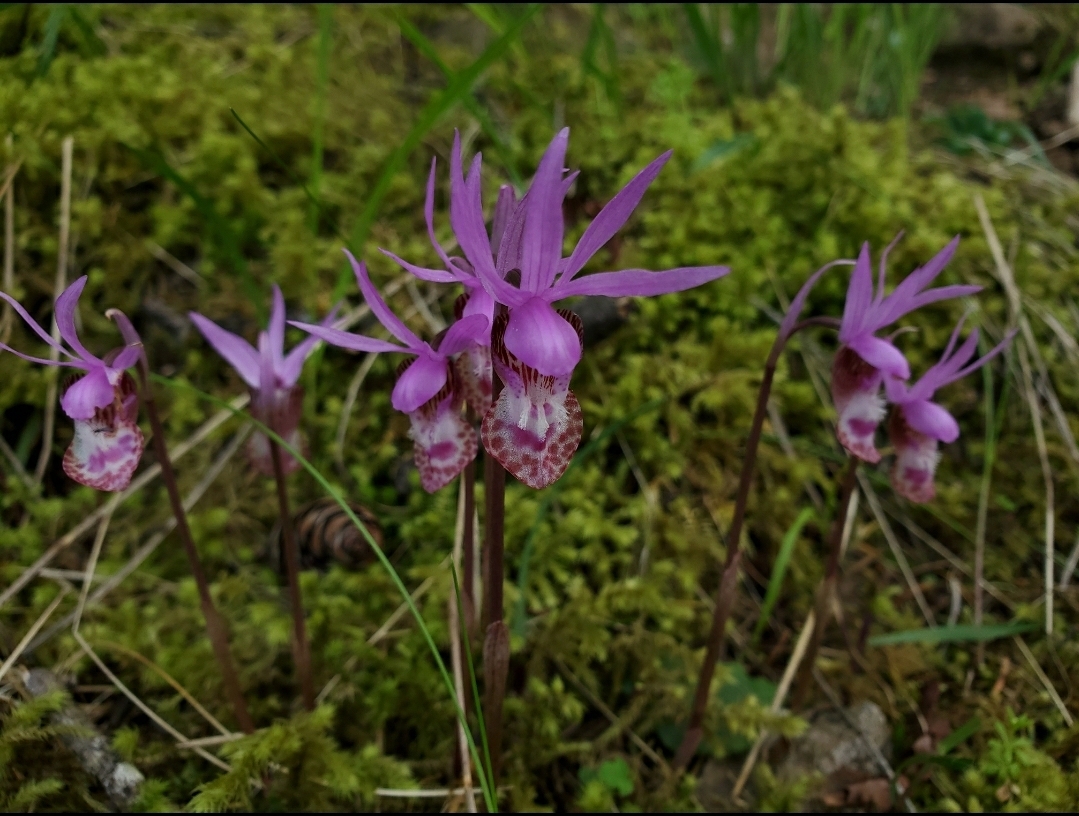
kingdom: Plantae
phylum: Tracheophyta
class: Liliopsida
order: Asparagales
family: Orchidaceae
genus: Calypso
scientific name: Calypso bulbosa
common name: Calypso
